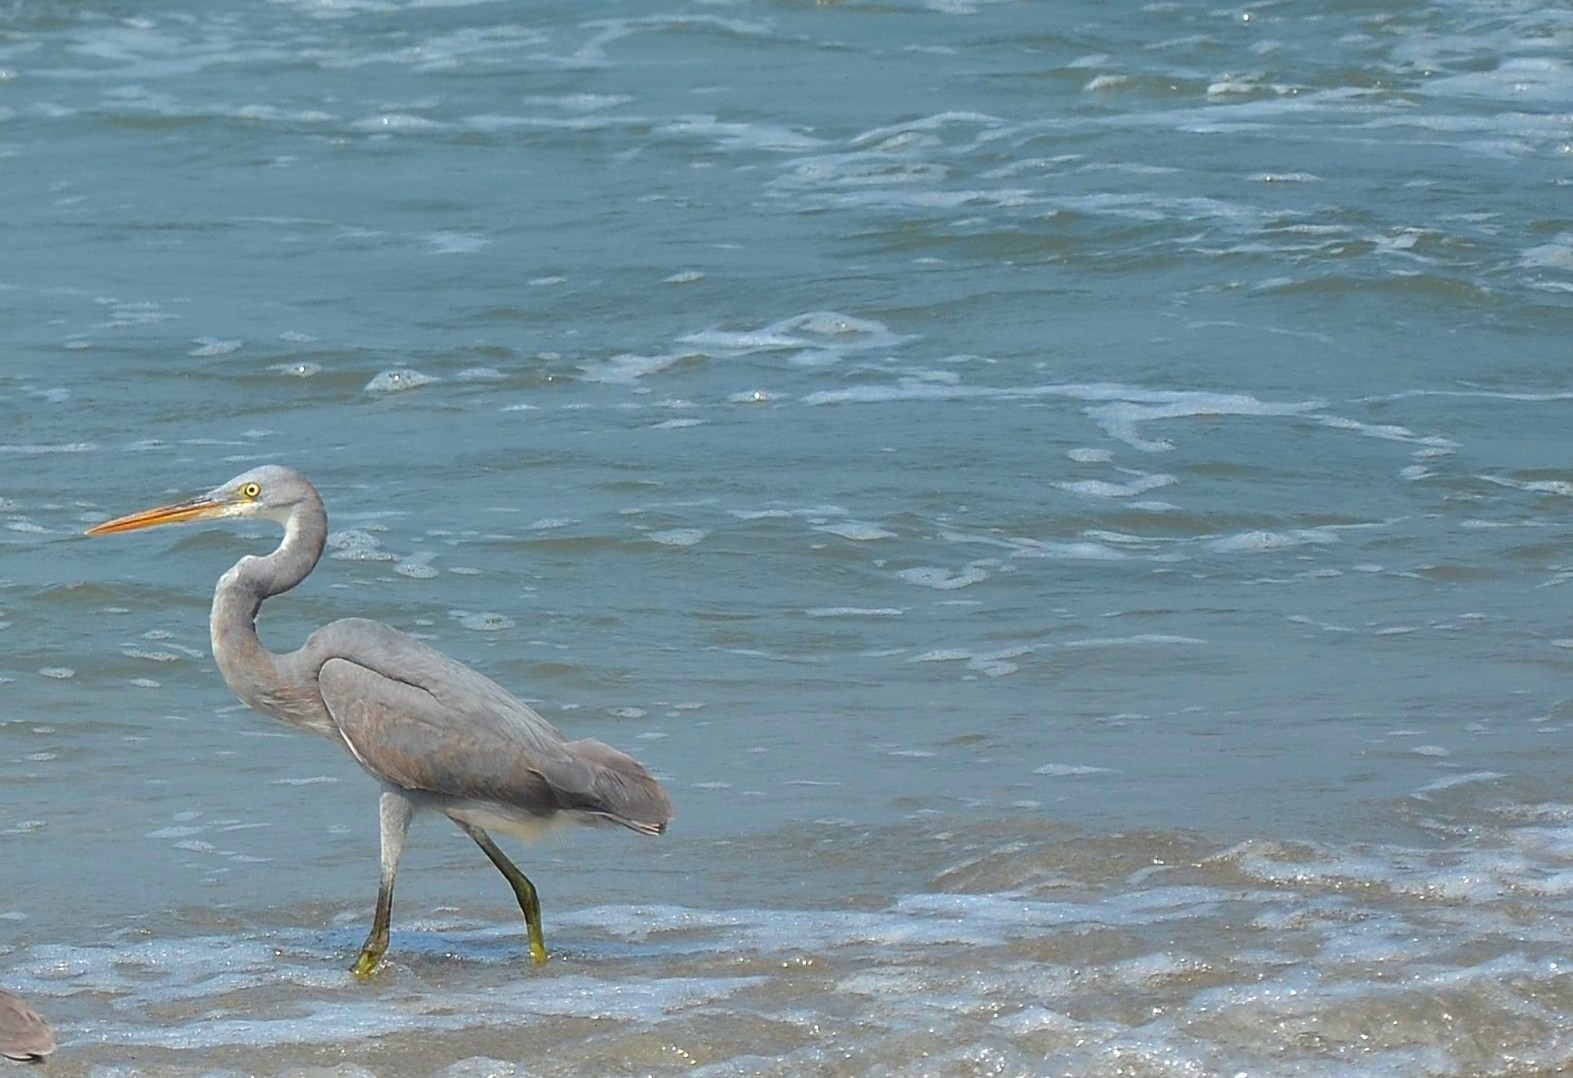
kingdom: Animalia
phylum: Chordata
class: Aves
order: Pelecaniformes
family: Ardeidae
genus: Egretta
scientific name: Egretta gularis
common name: Western reef-heron
